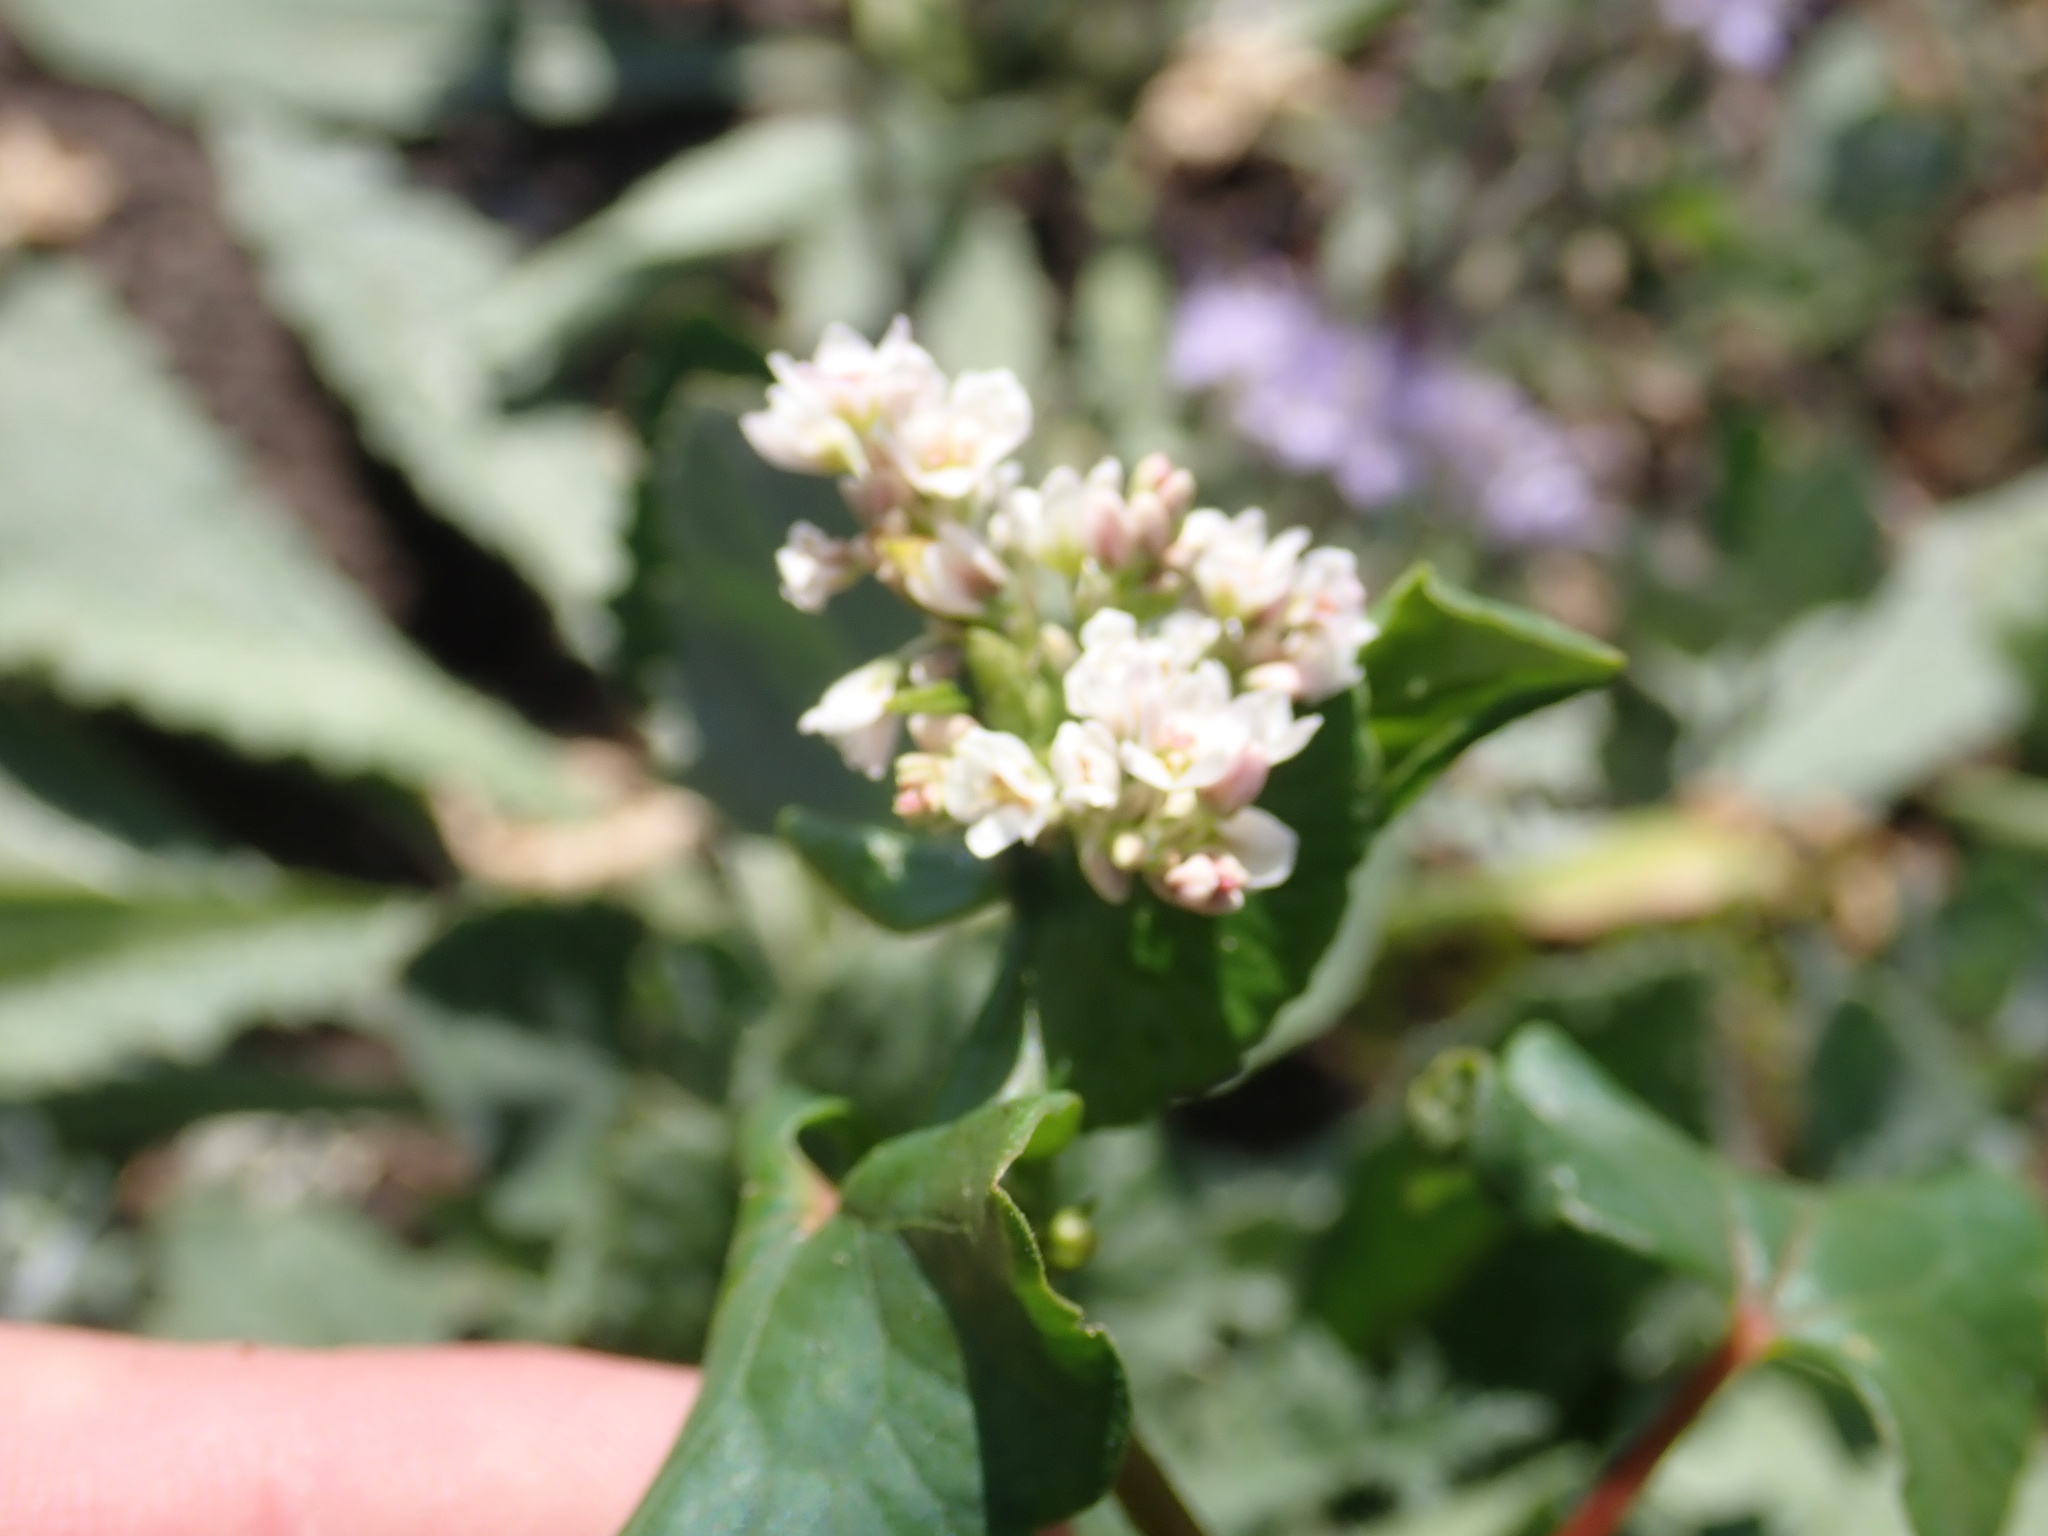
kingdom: Plantae
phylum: Tracheophyta
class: Magnoliopsida
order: Caryophyllales
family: Polygonaceae
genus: Fagopyrum
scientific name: Fagopyrum esculentum
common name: Buckwheat
